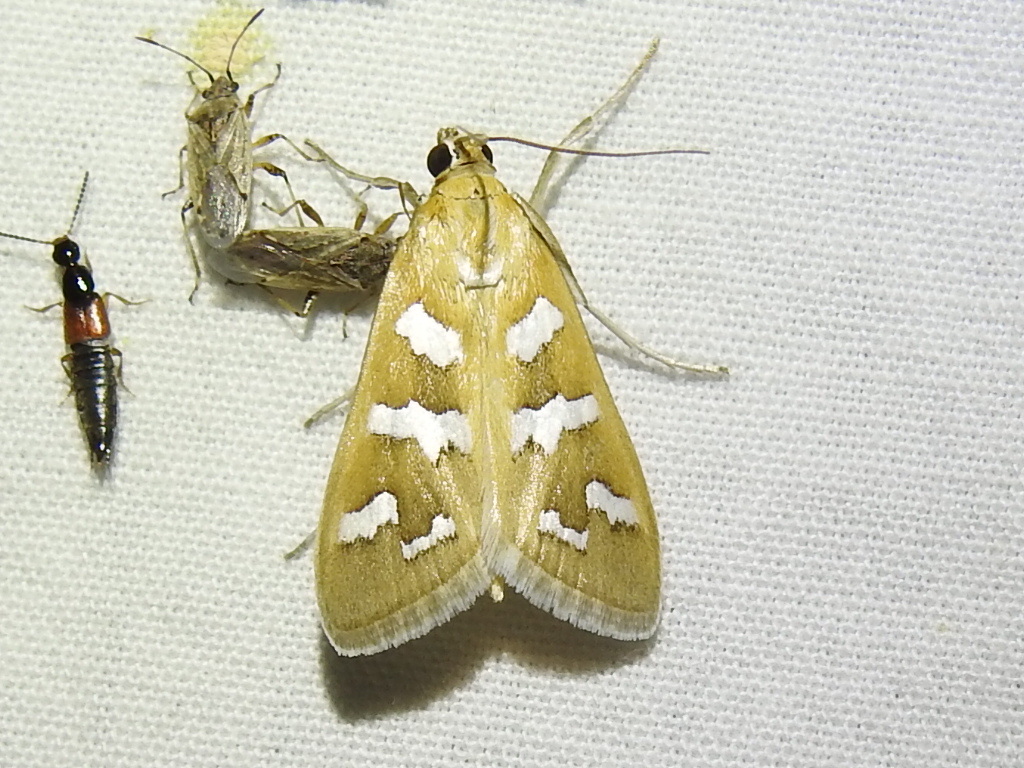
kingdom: Animalia
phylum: Arthropoda
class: Insecta
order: Lepidoptera
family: Crambidae
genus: Diastictis
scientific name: Diastictis fracturalis
